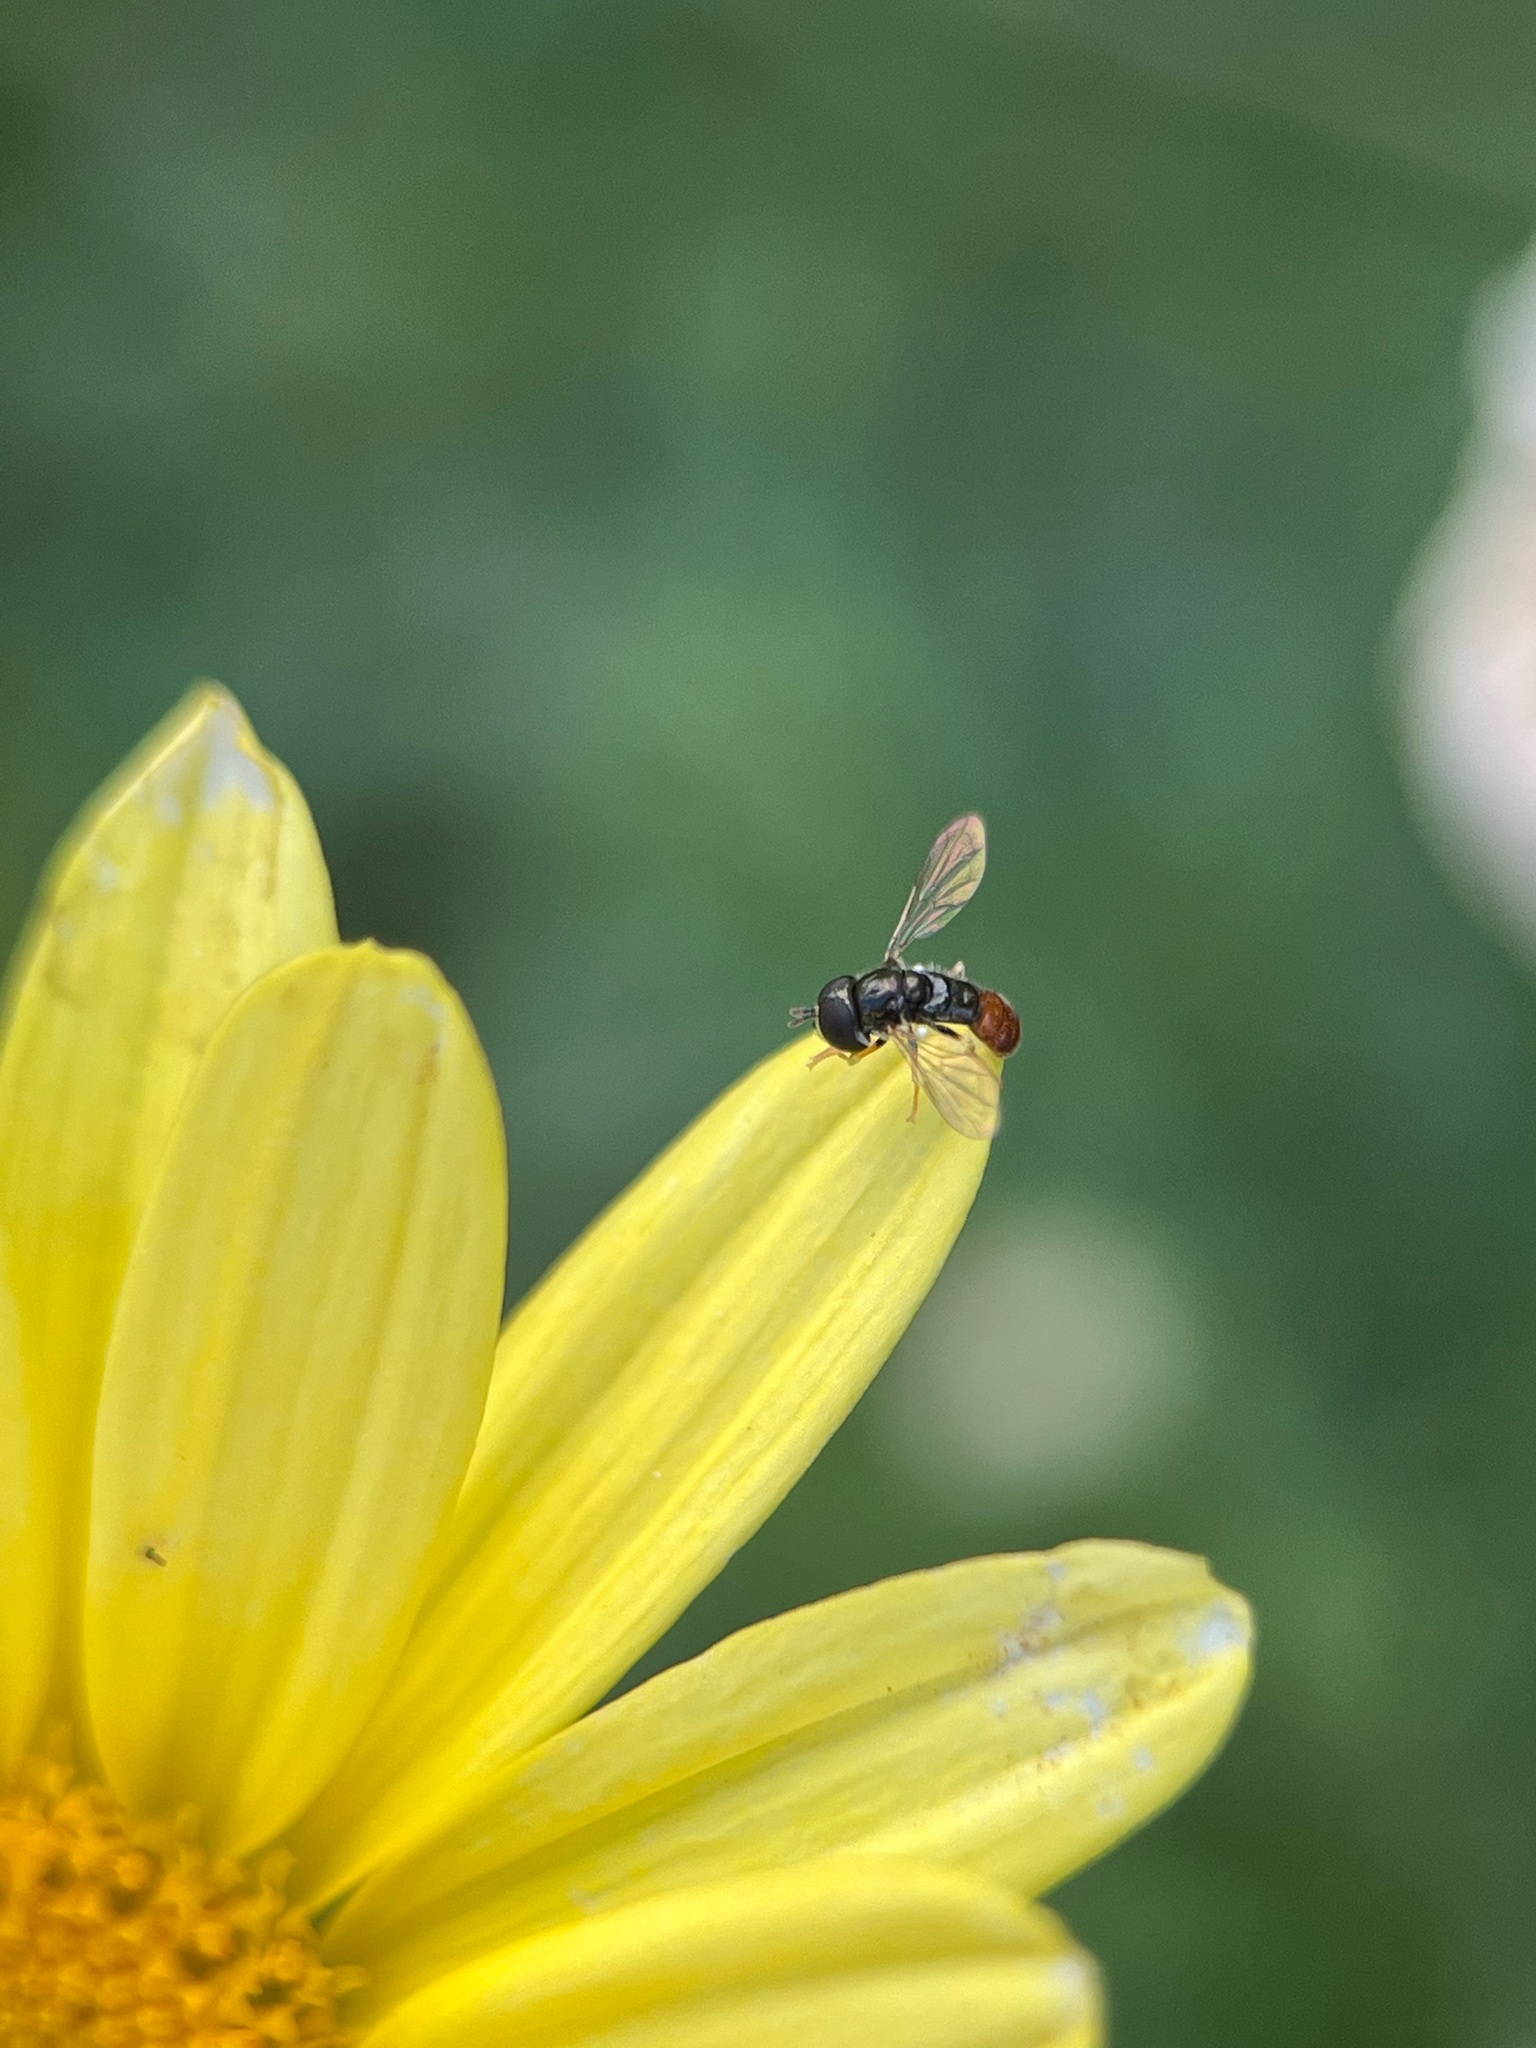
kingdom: Animalia
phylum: Arthropoda
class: Insecta
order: Diptera
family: Syrphidae
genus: Paragus
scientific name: Paragus haemorrhous
